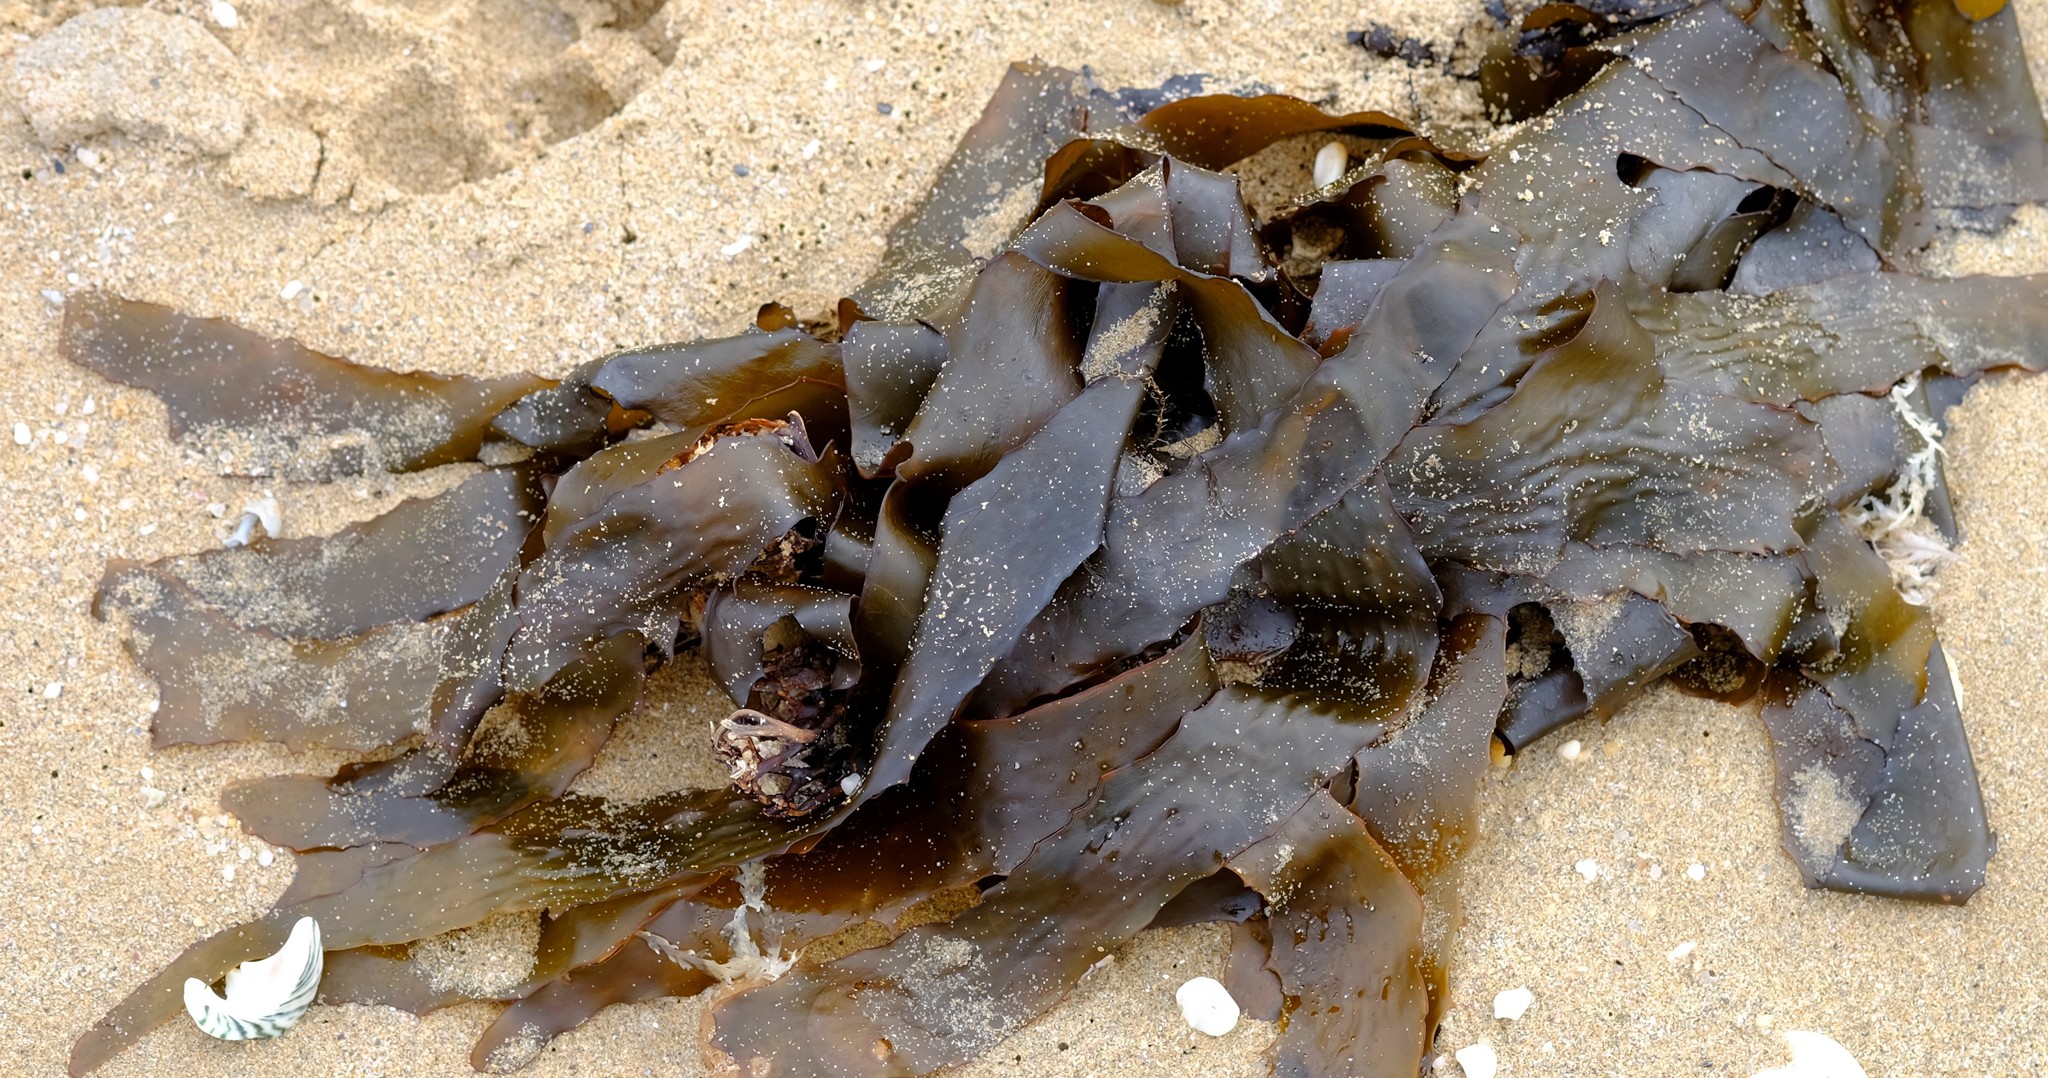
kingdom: Chromista
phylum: Ochrophyta
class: Phaeophyceae
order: Laminariales
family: Lessoniaceae
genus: Ecklonia
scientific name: Ecklonia radiata
